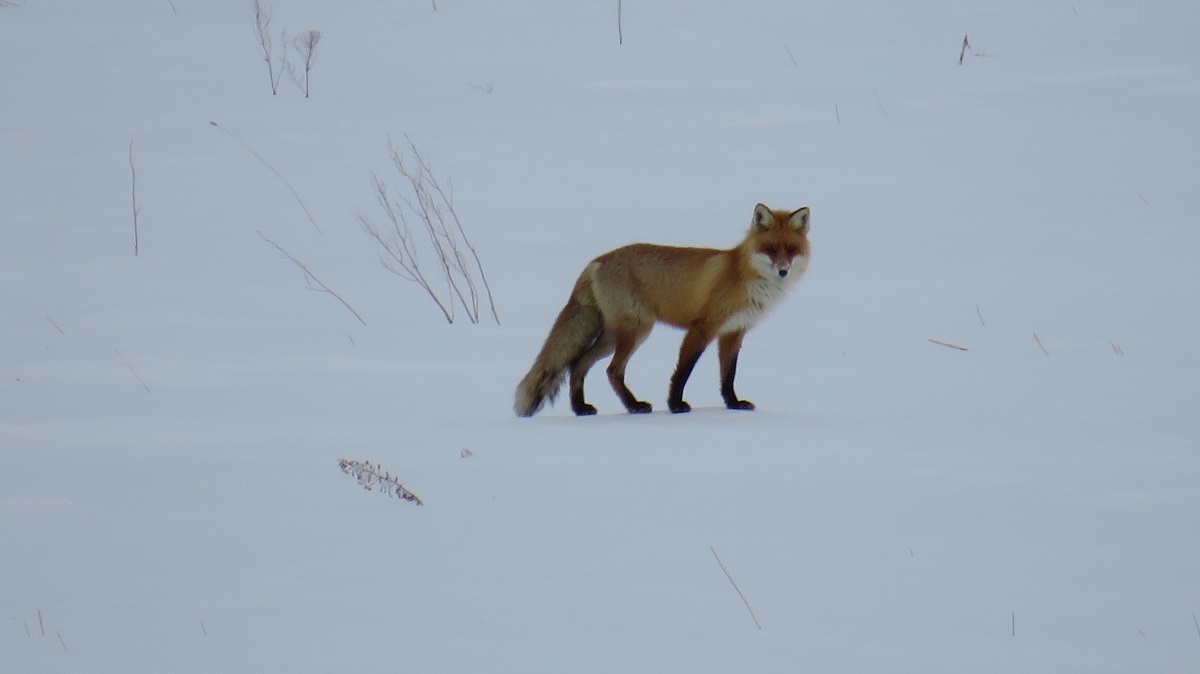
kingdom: Animalia
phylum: Chordata
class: Mammalia
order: Carnivora
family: Canidae
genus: Vulpes
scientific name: Vulpes vulpes
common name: Red fox
